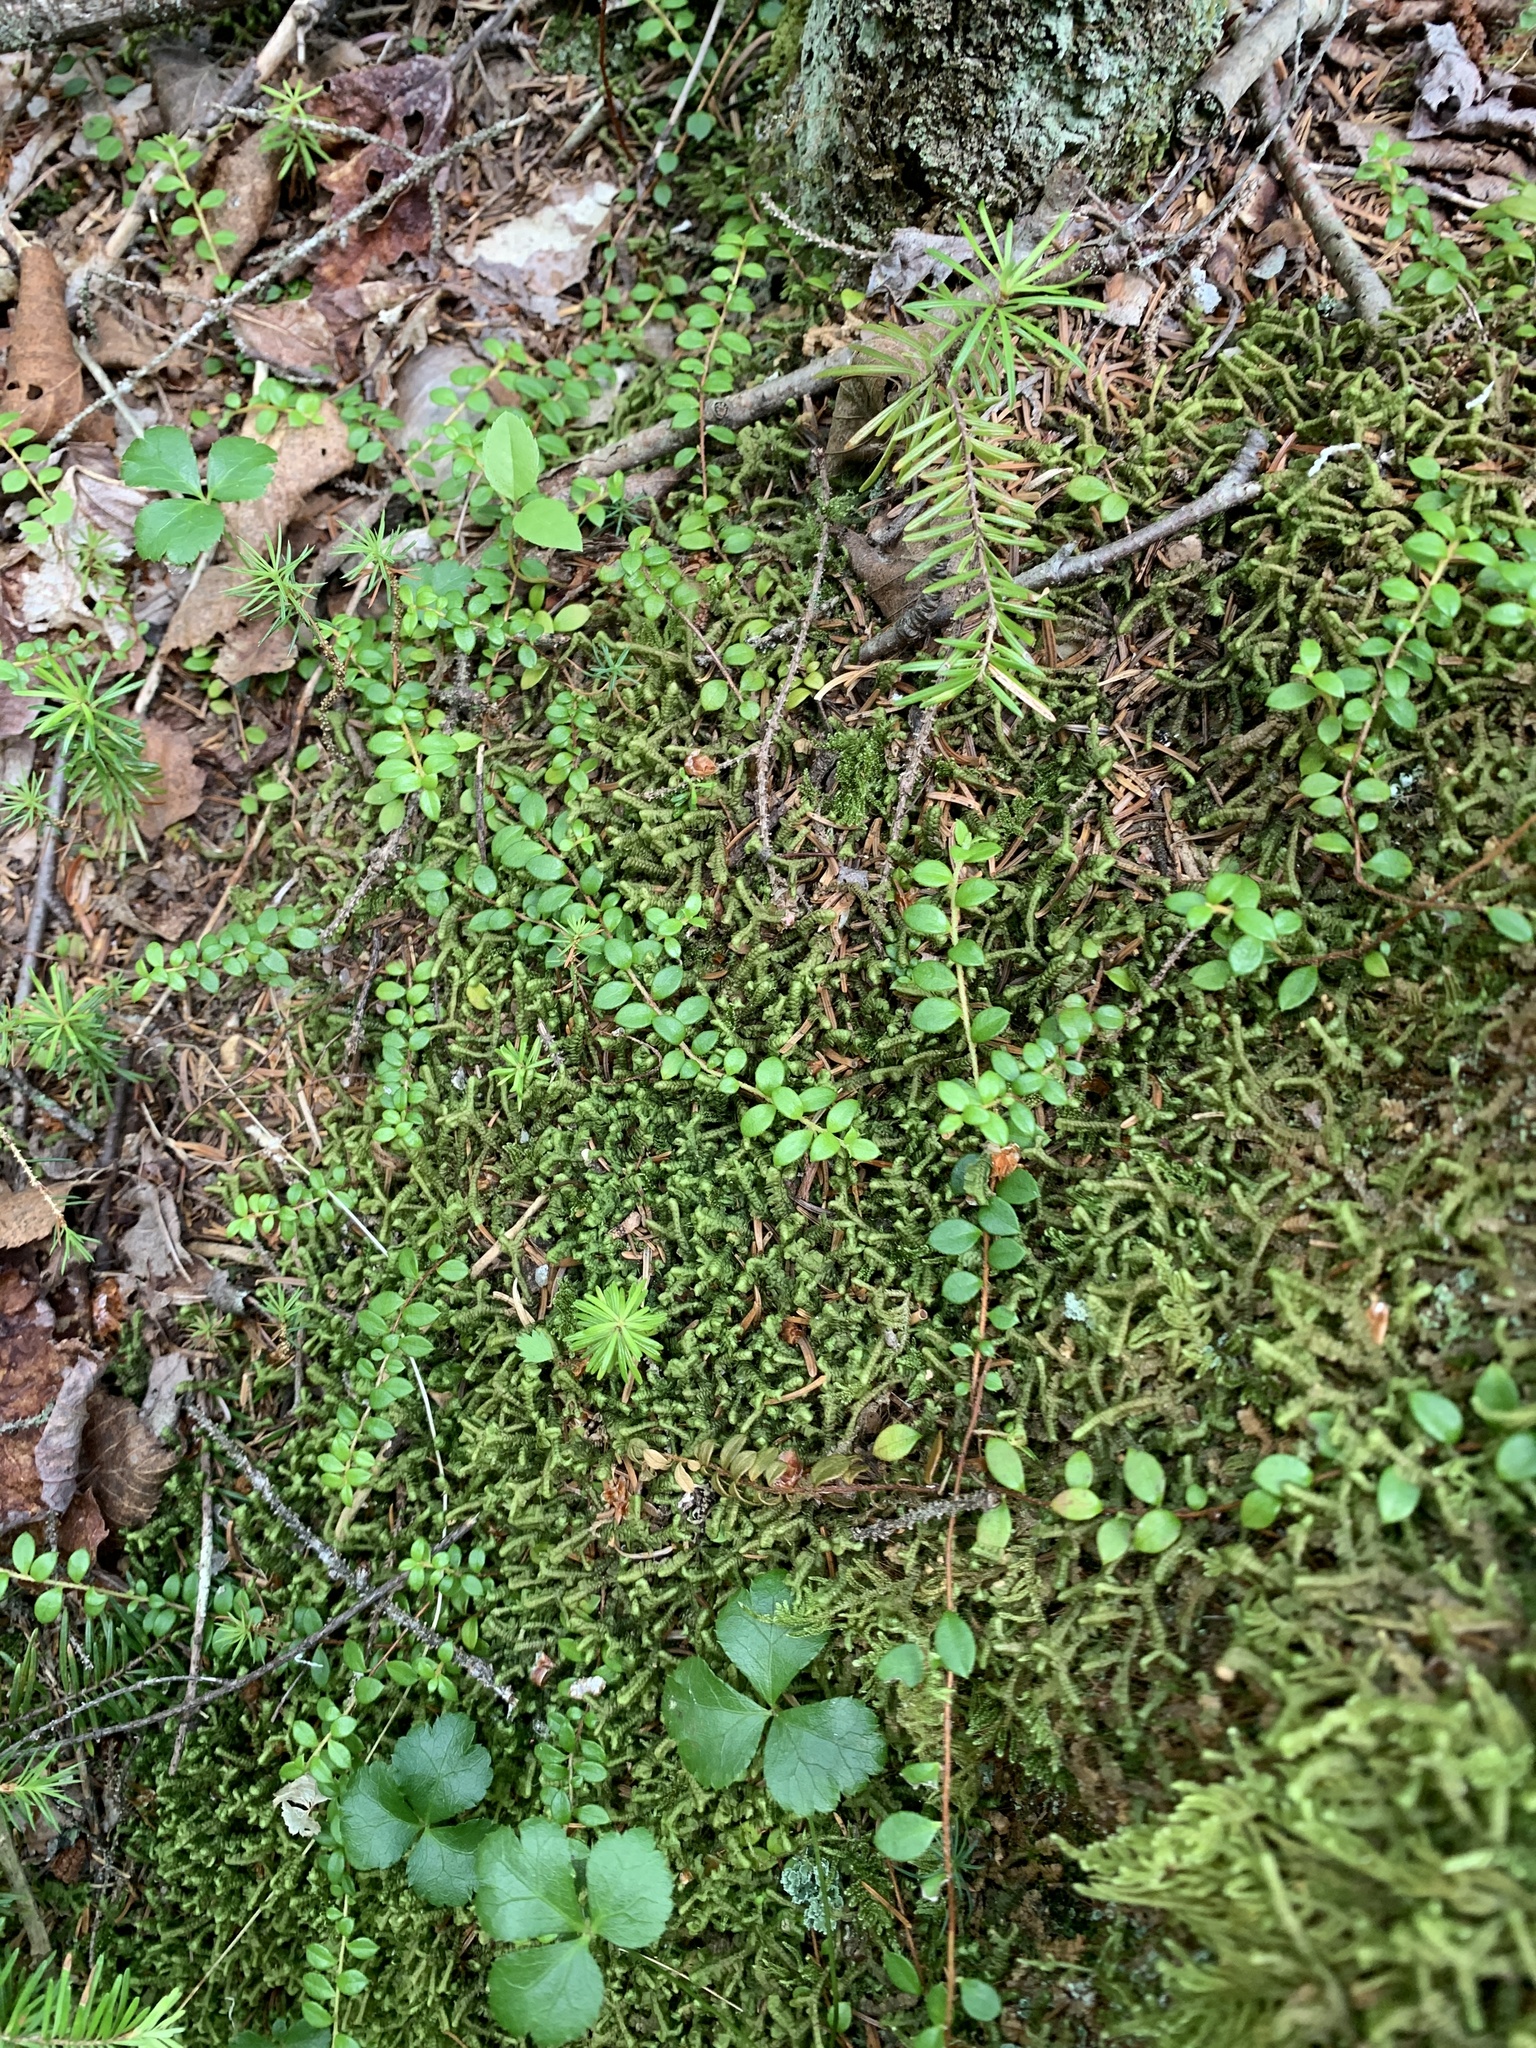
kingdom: Plantae
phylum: Tracheophyta
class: Magnoliopsida
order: Ericales
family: Ericaceae
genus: Gaultheria
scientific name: Gaultheria hispidula
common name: Cancer wintergreen
